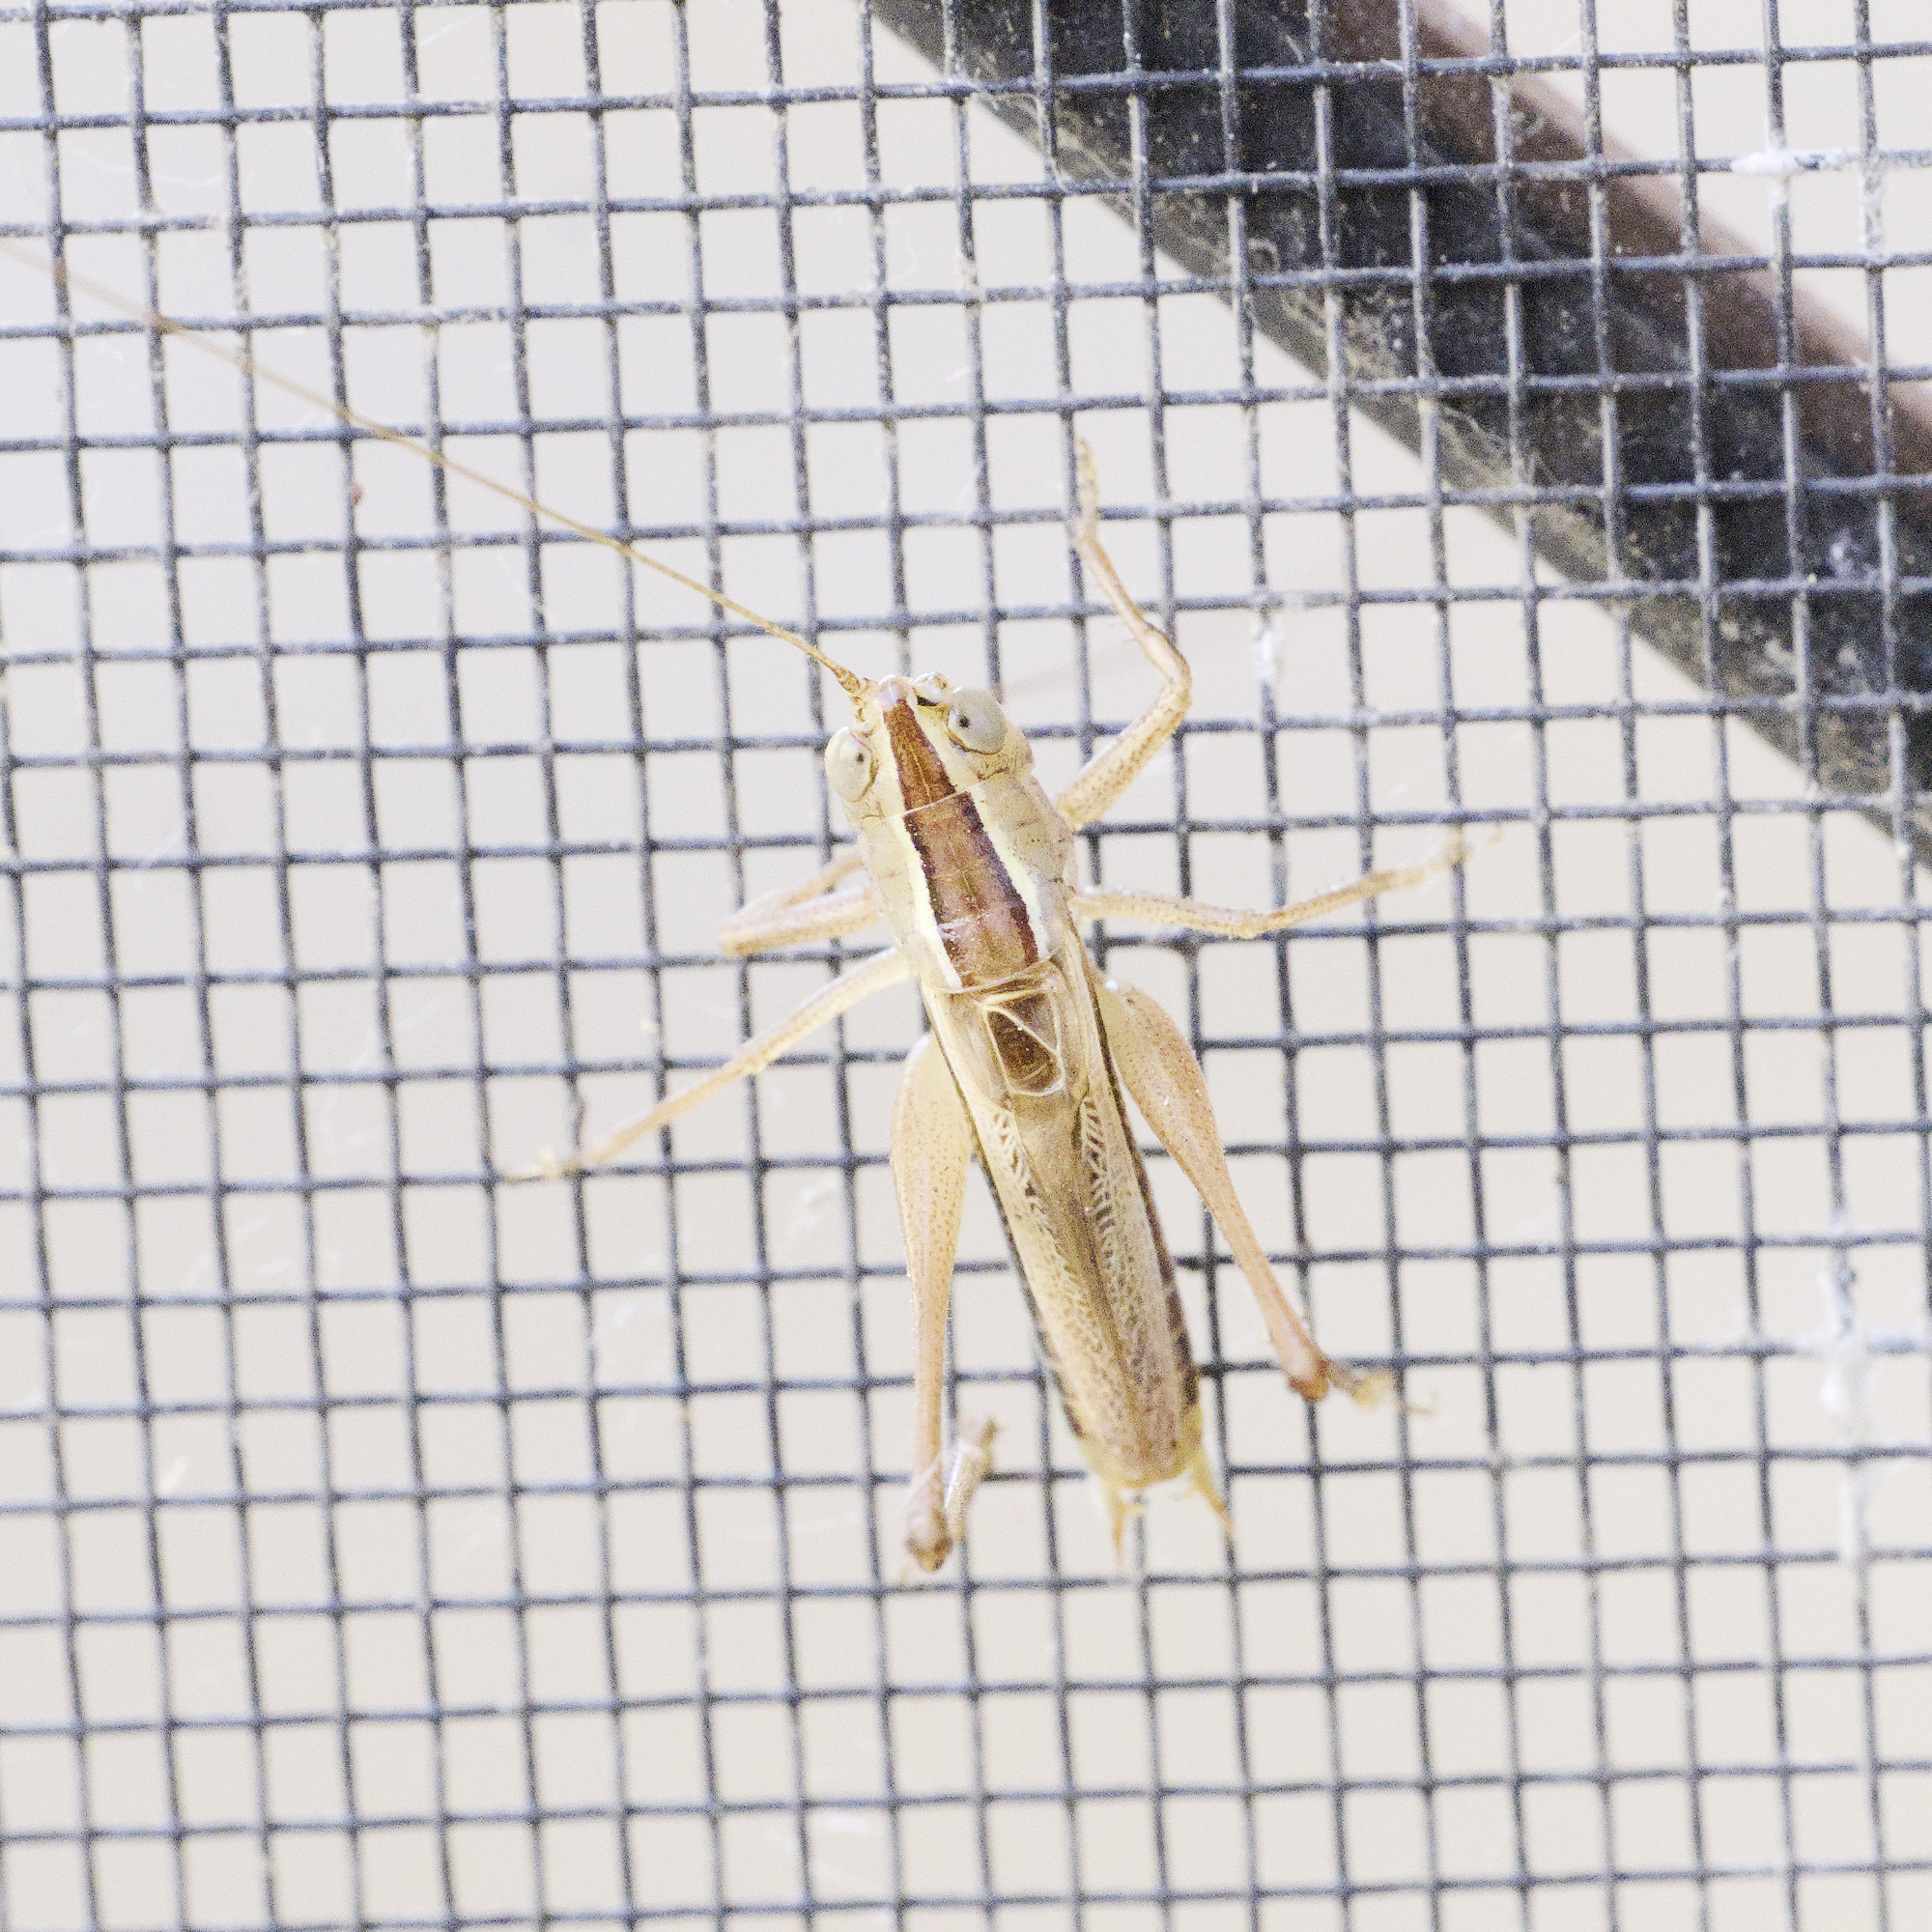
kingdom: Animalia
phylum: Arthropoda
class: Insecta
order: Orthoptera
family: Tettigoniidae
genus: Conocephalus
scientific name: Conocephalus albescens
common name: Whitish meadow katydid
